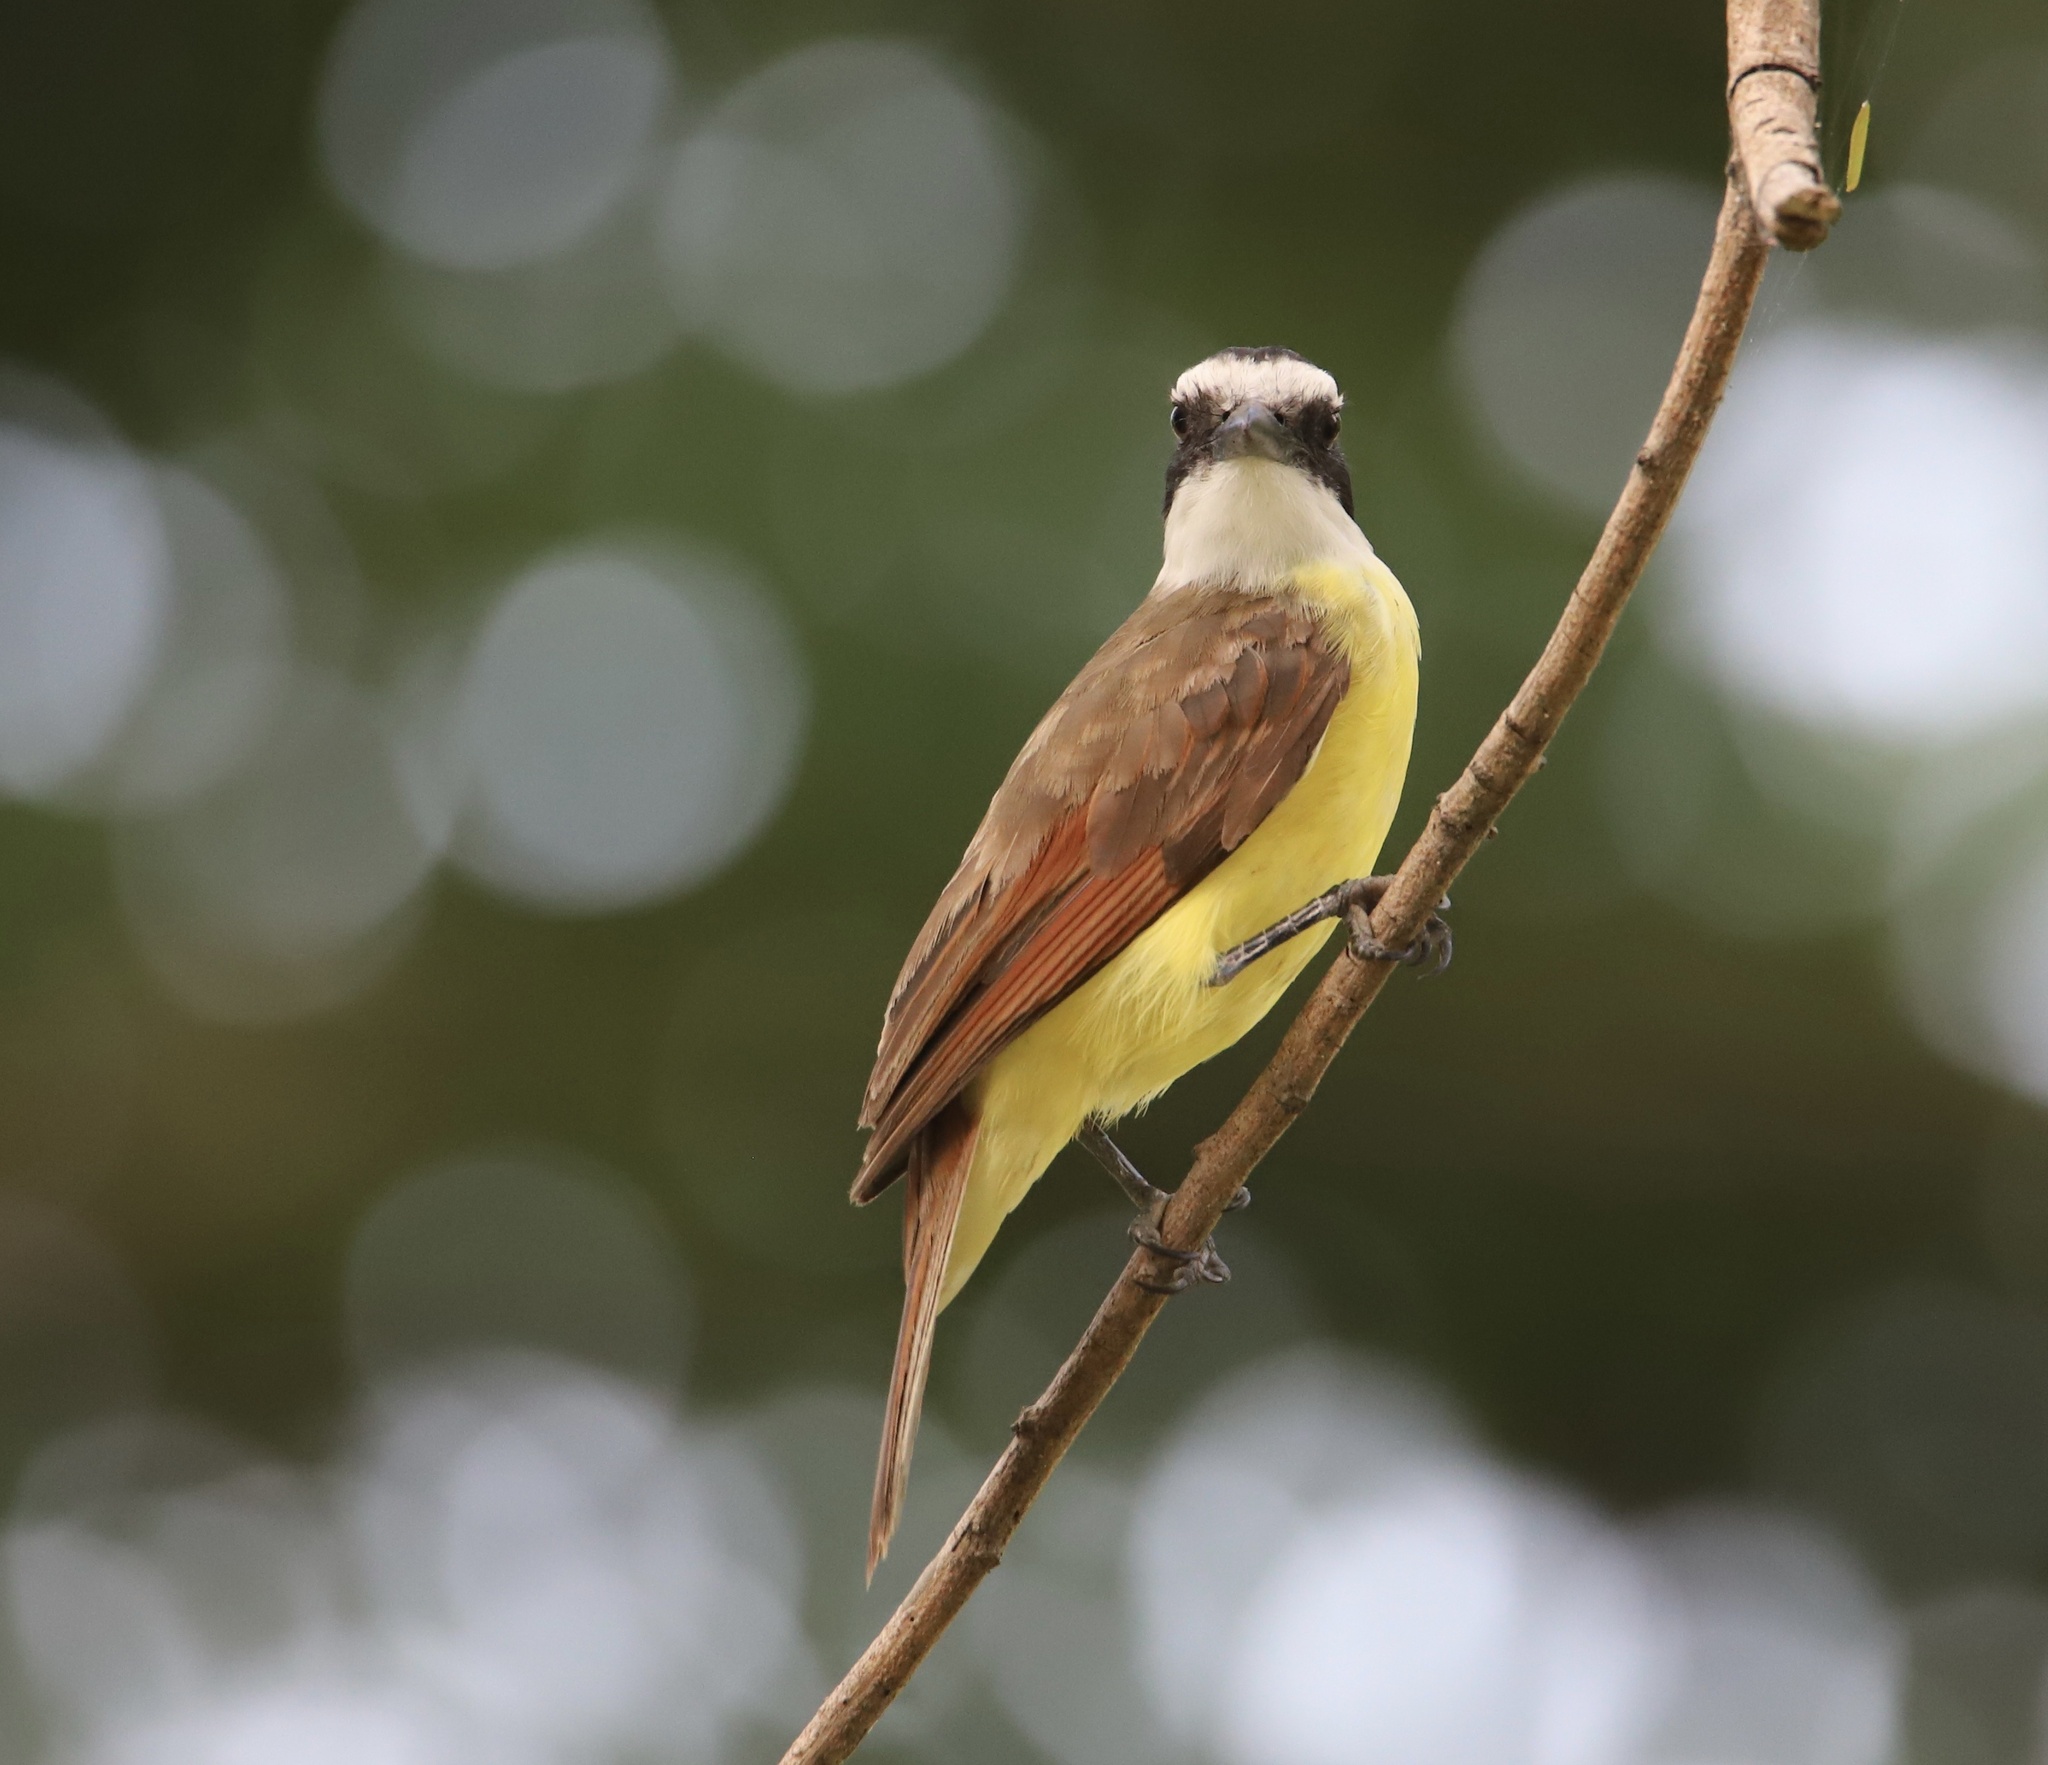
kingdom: Animalia
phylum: Chordata
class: Aves
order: Passeriformes
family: Tyrannidae
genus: Pitangus
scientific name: Pitangus sulphuratus
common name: Great kiskadee
